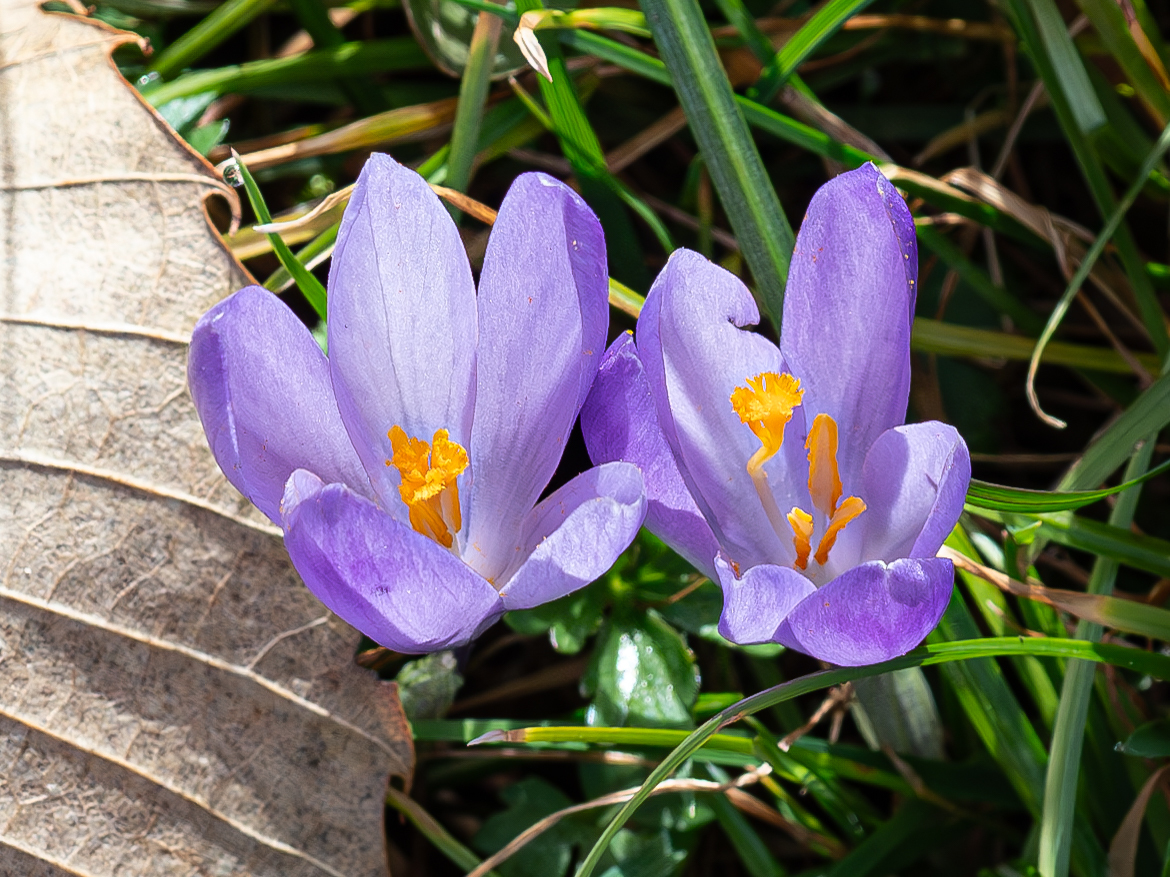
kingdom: Plantae
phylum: Tracheophyta
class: Liliopsida
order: Asparagales
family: Iridaceae
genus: Crocus
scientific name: Crocus heuffelianus
